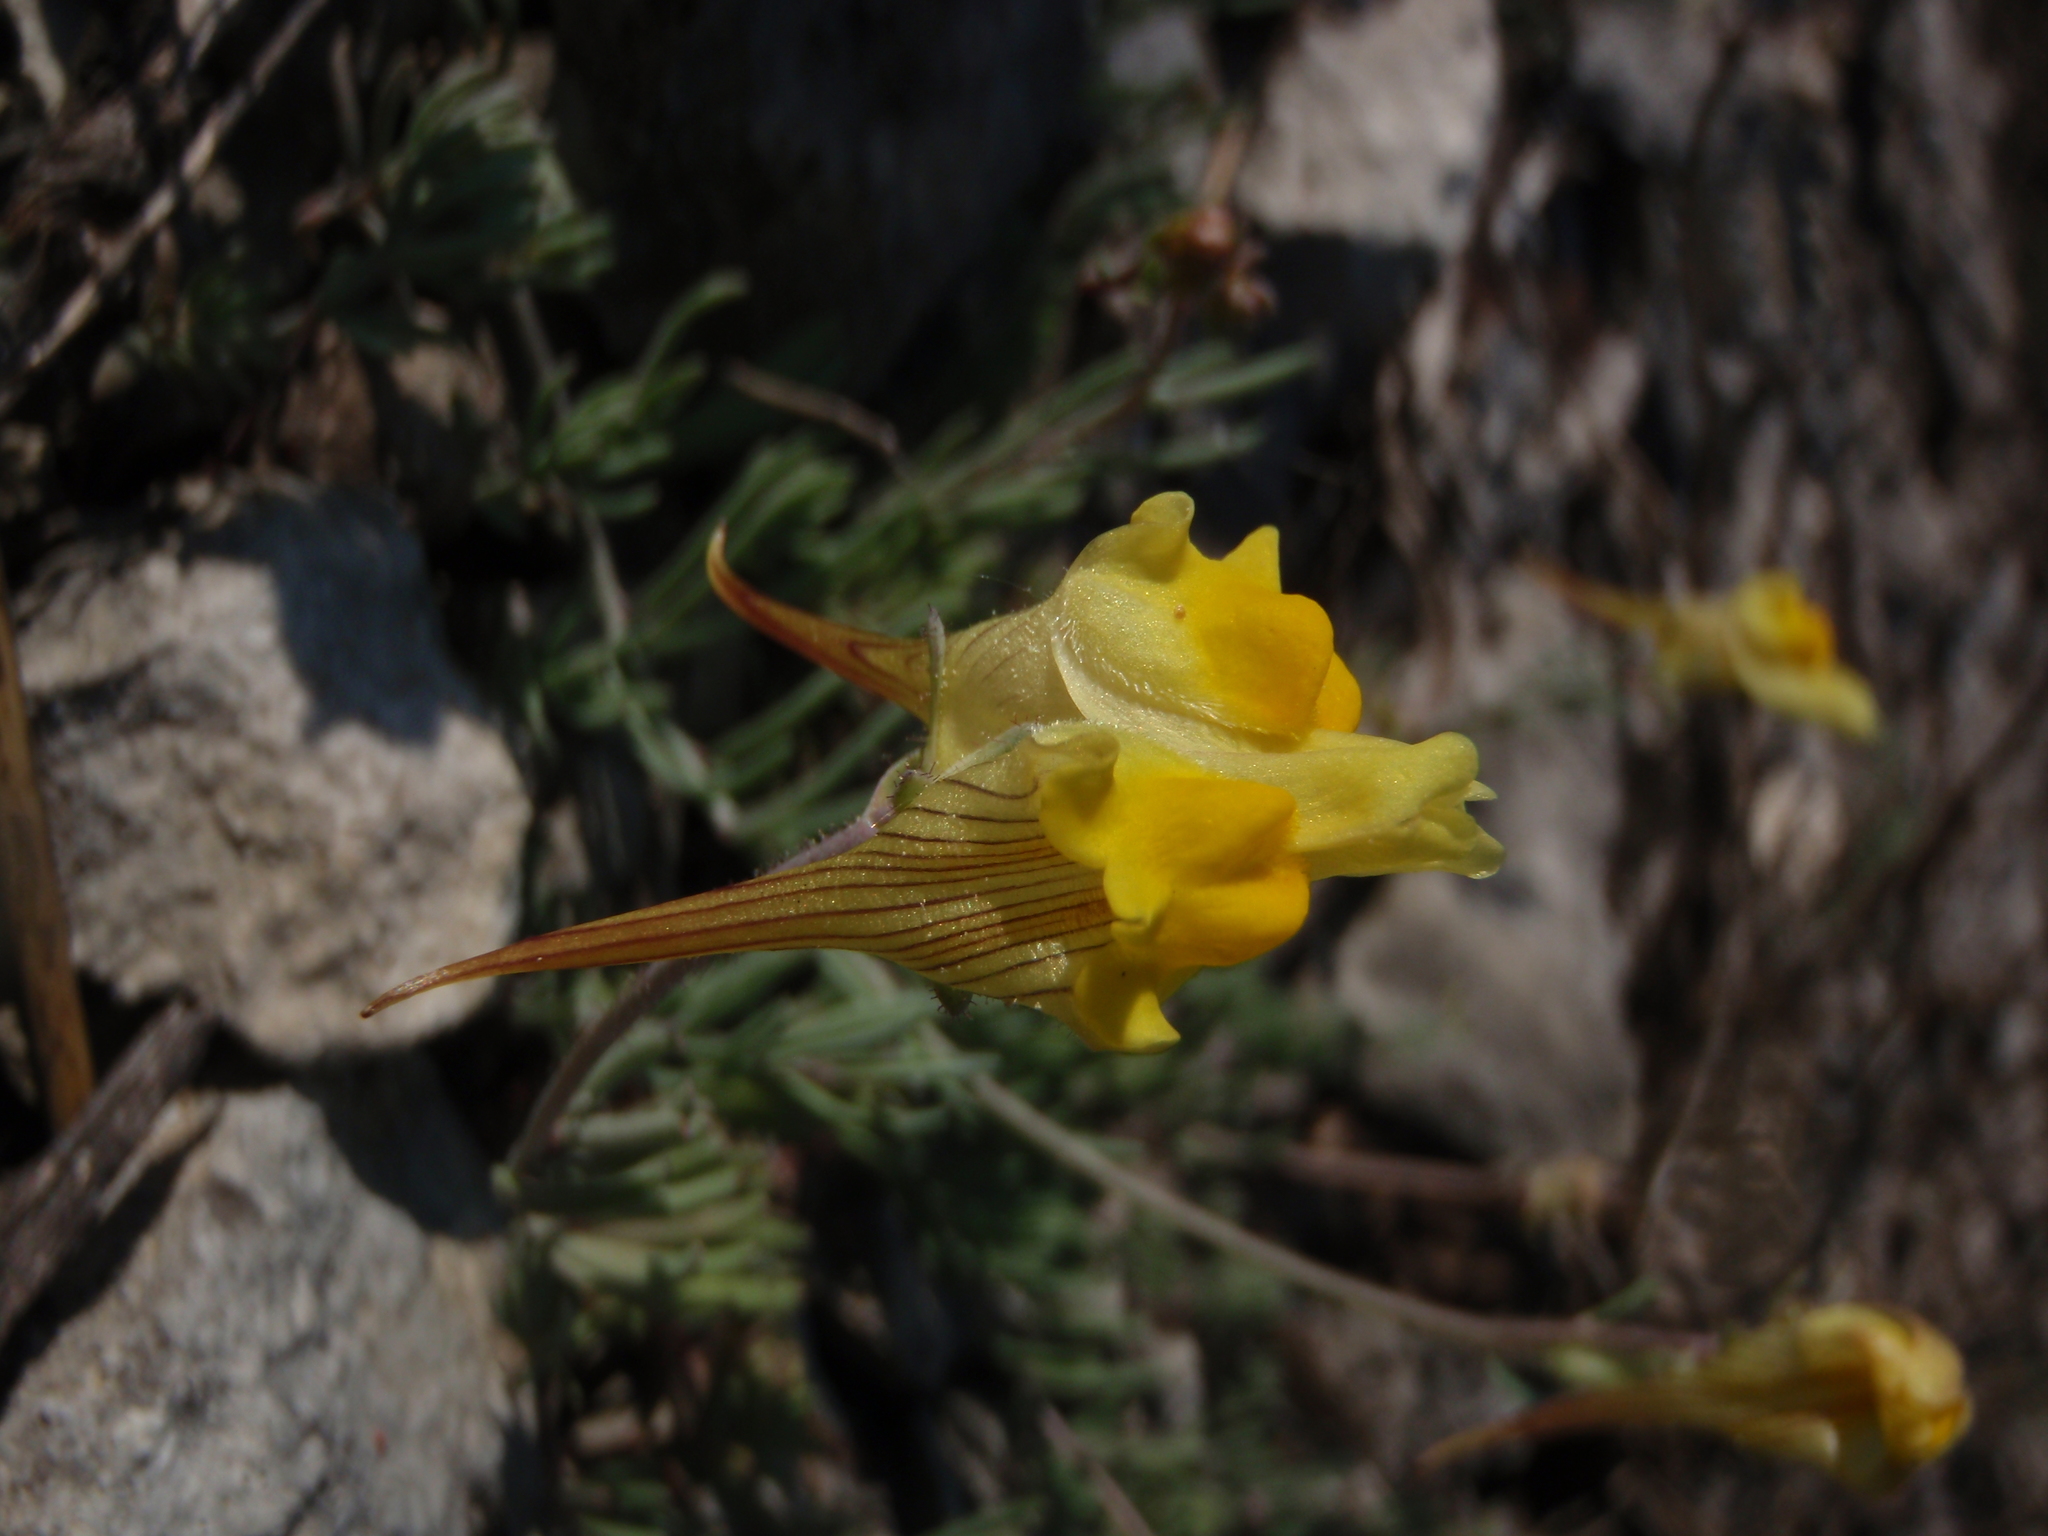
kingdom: Plantae
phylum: Tracheophyta
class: Magnoliopsida
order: Lamiales
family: Plantaginaceae
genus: Linaria
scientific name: Linaria supina
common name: Prostrate toadflax
